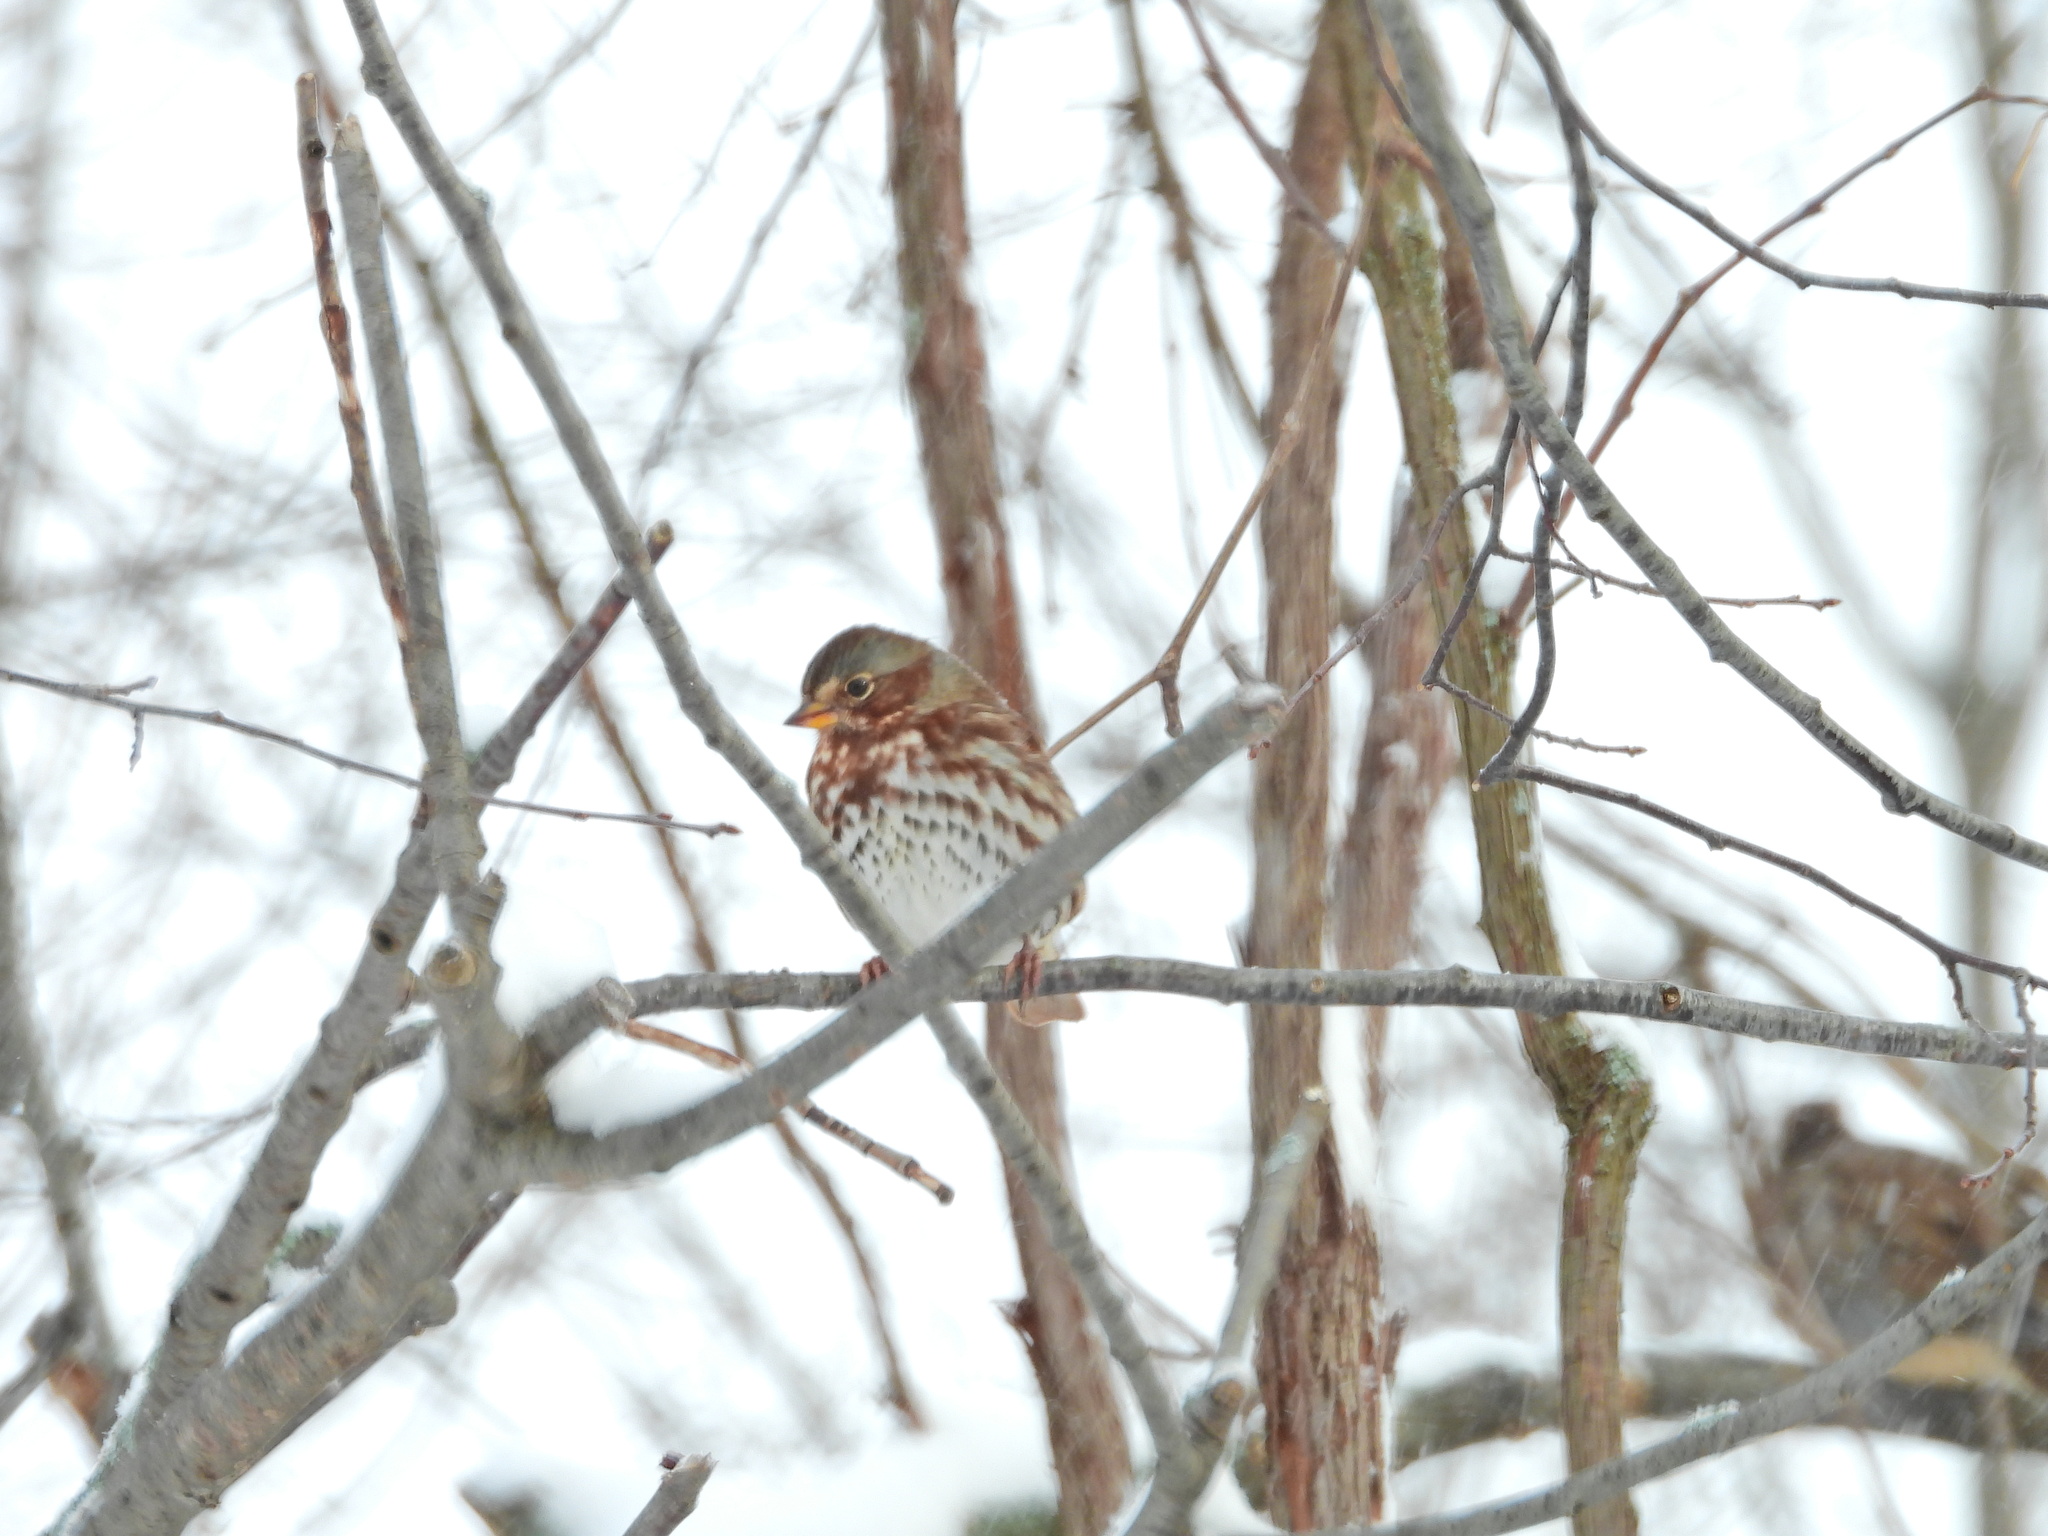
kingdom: Animalia
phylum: Chordata
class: Aves
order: Passeriformes
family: Passerellidae
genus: Passerella
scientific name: Passerella iliaca
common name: Fox sparrow
